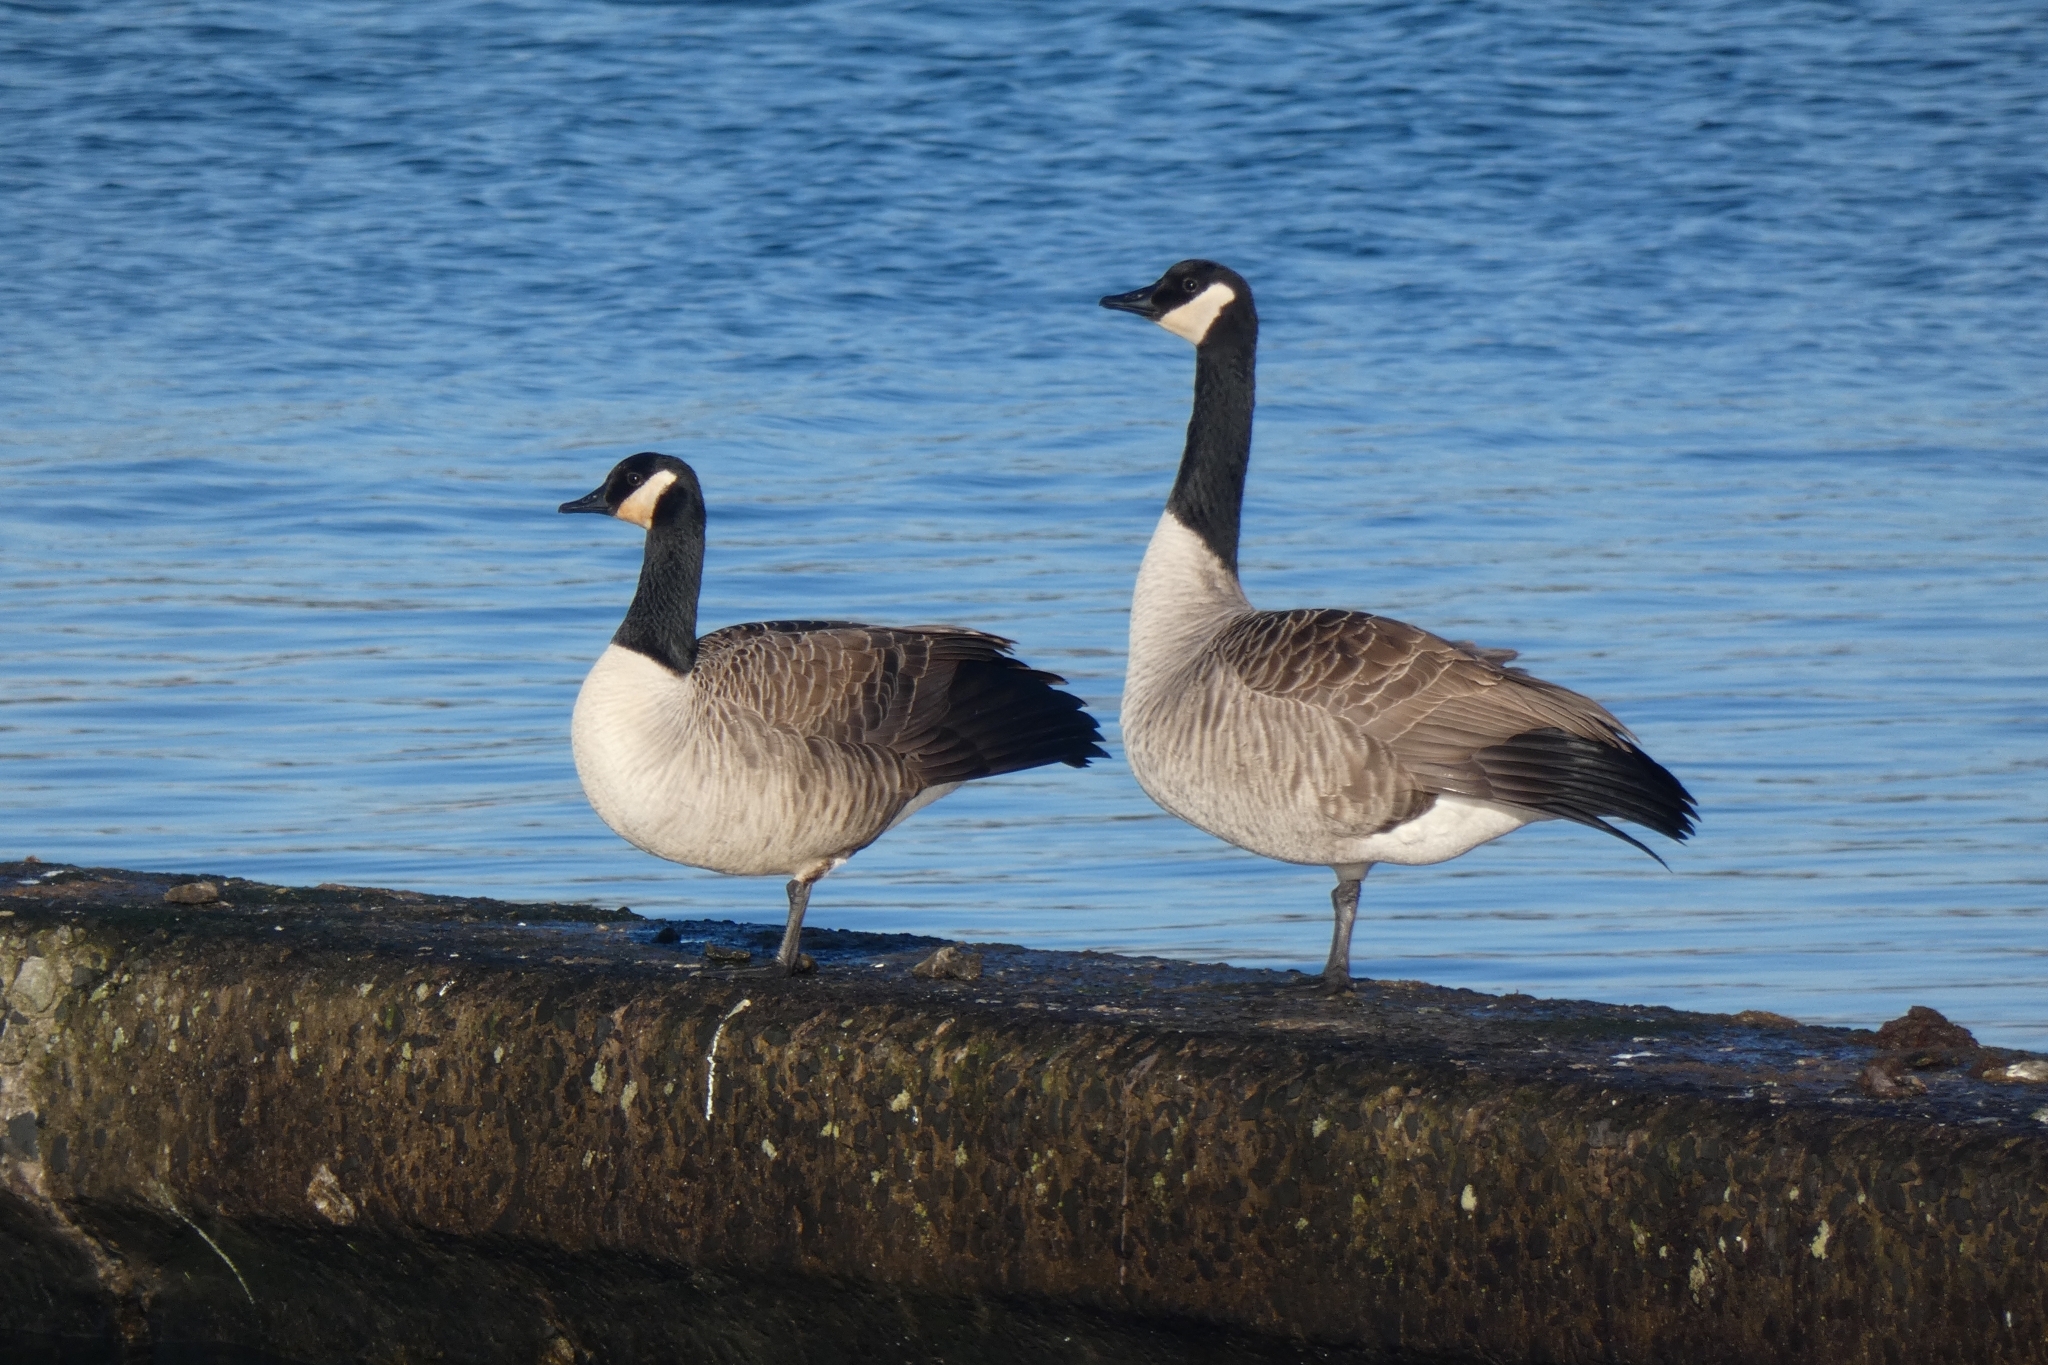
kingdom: Animalia
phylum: Chordata
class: Aves
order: Anseriformes
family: Anatidae
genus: Branta
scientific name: Branta canadensis
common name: Canada goose
